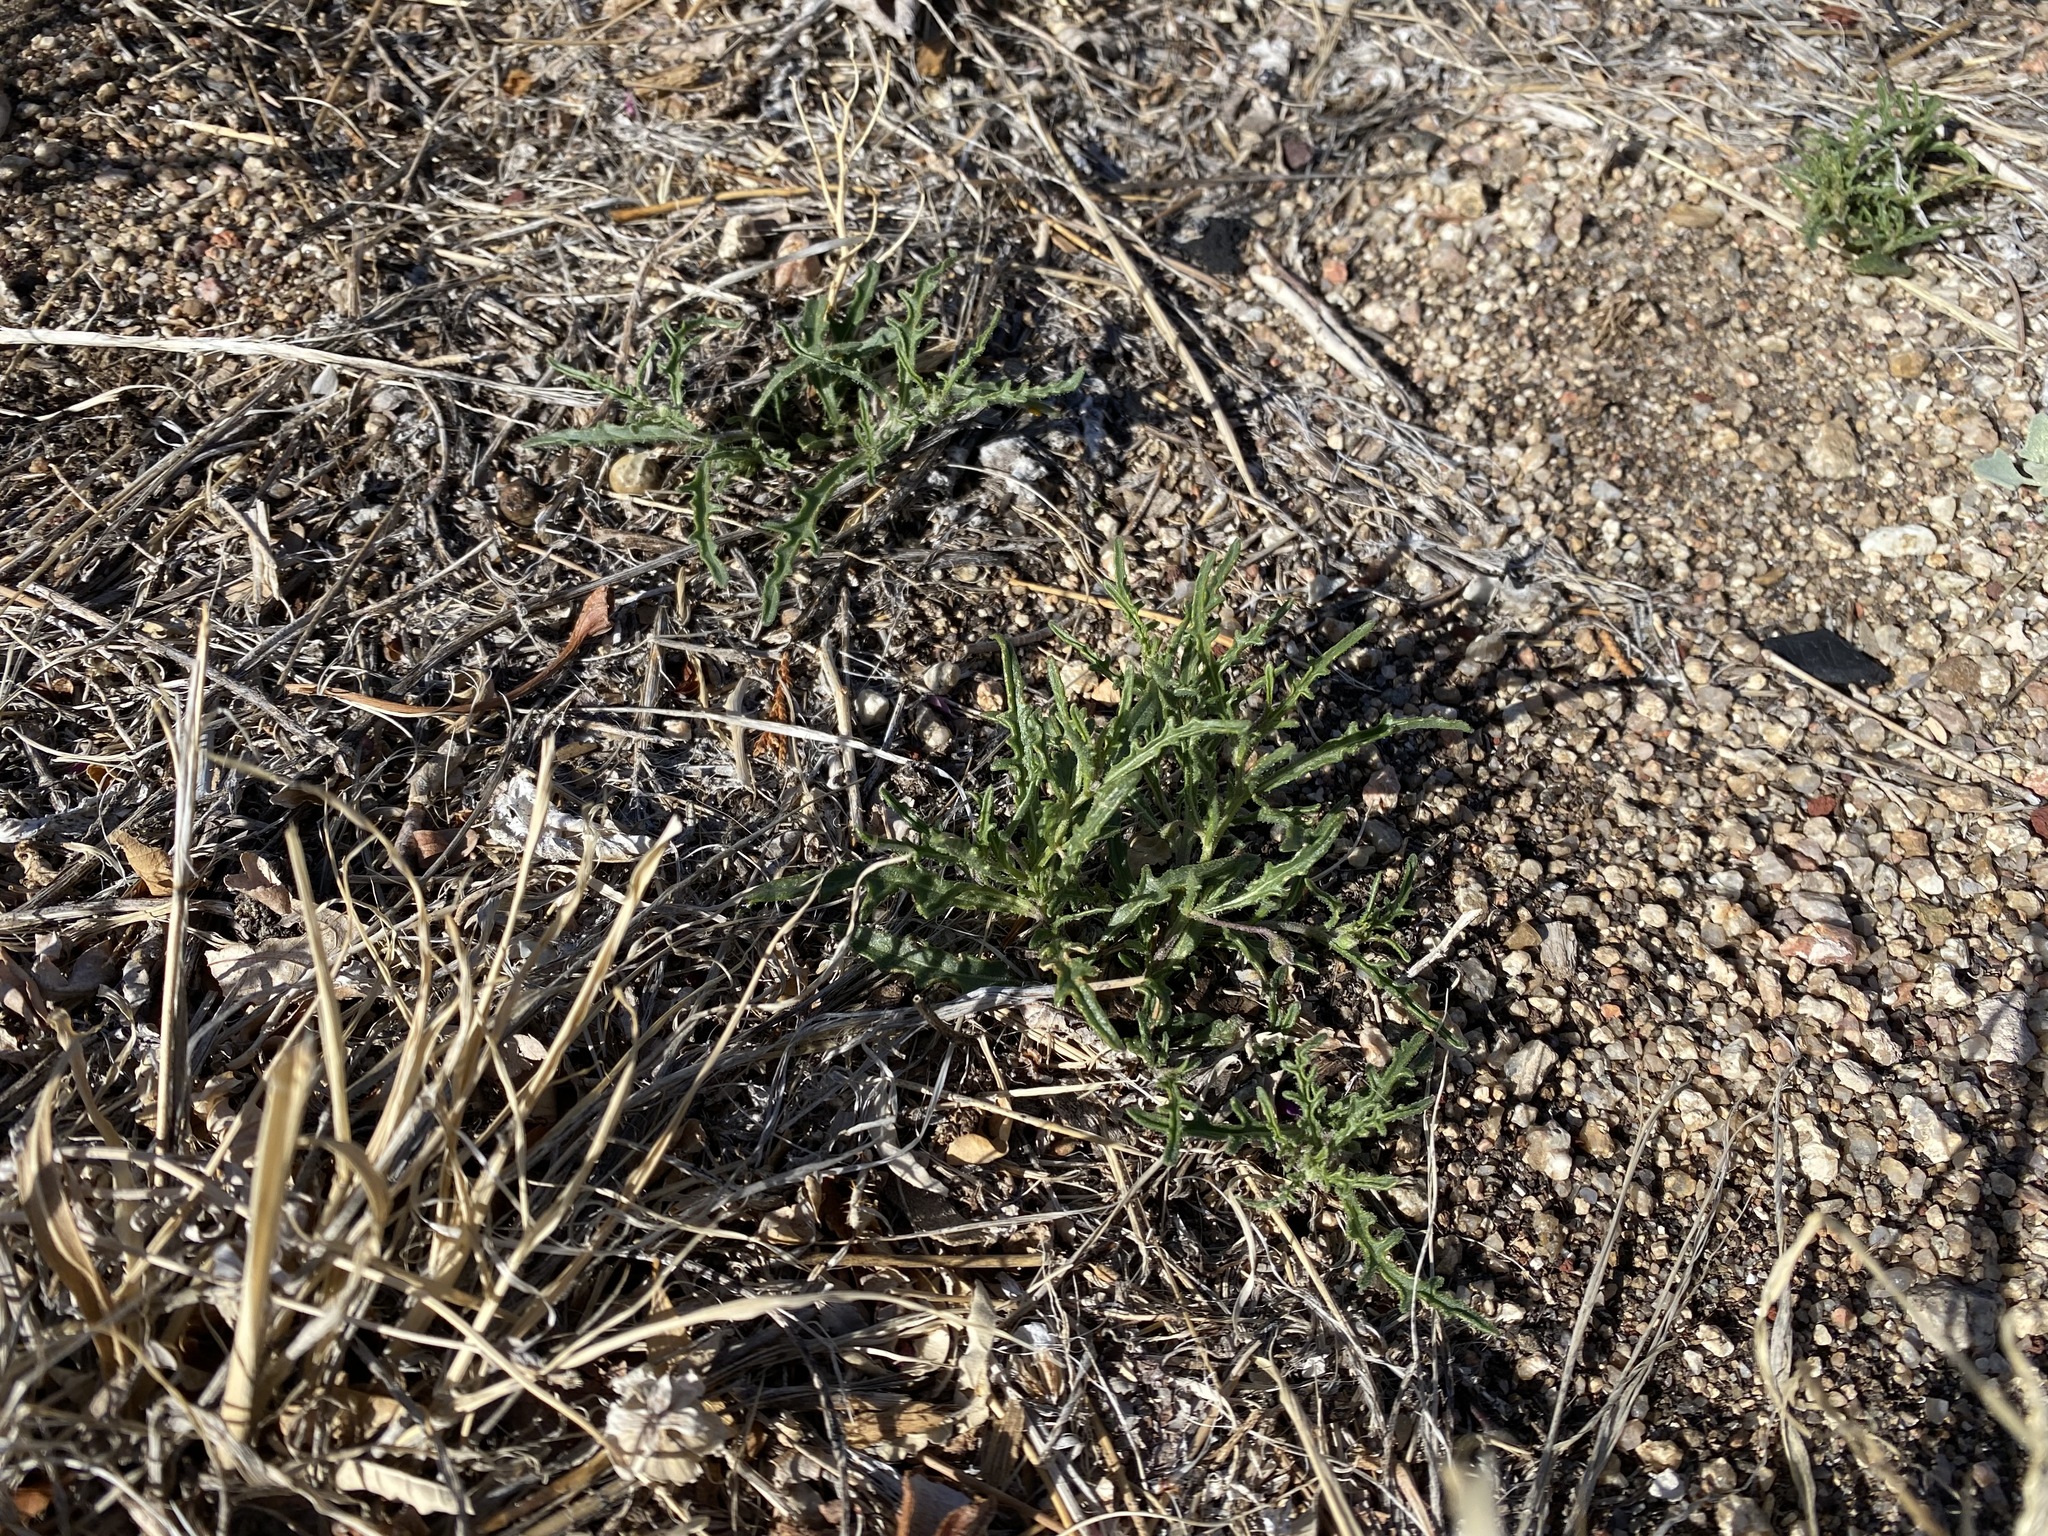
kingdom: Plantae
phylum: Tracheophyta
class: Magnoliopsida
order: Solanales
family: Solanaceae
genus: Chamaesaracha
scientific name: Chamaesaracha coronopus
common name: Smooth chamaesaracha
